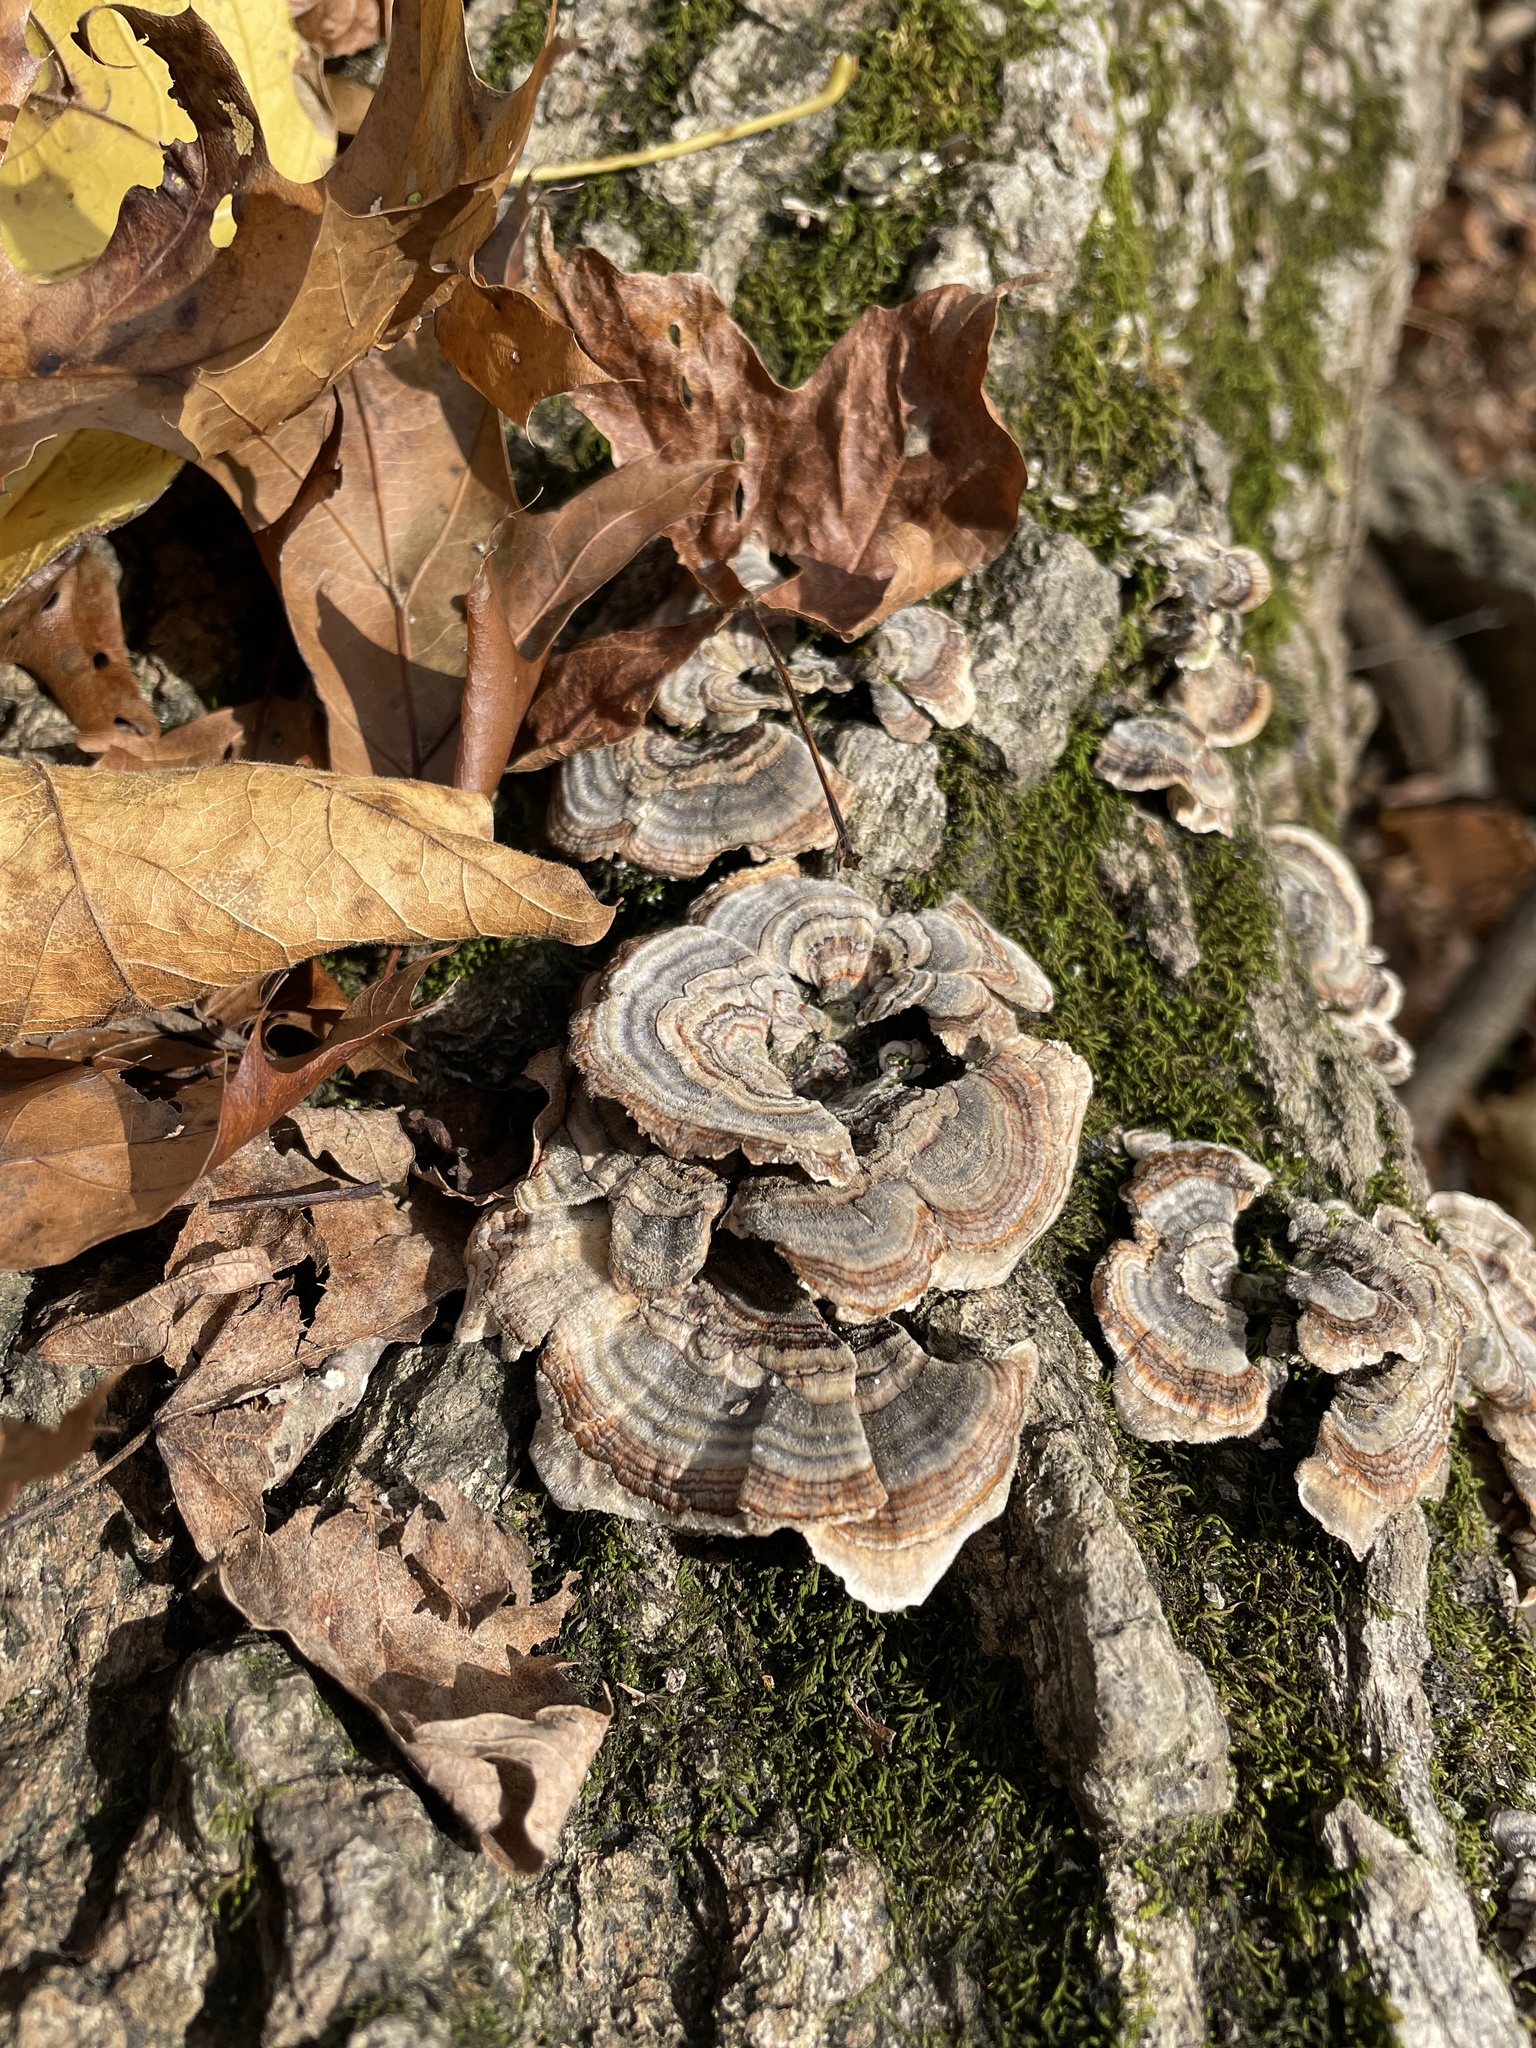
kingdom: Fungi
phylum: Basidiomycota
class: Agaricomycetes
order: Polyporales
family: Polyporaceae
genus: Trametes
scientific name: Trametes versicolor
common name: Turkeytail
